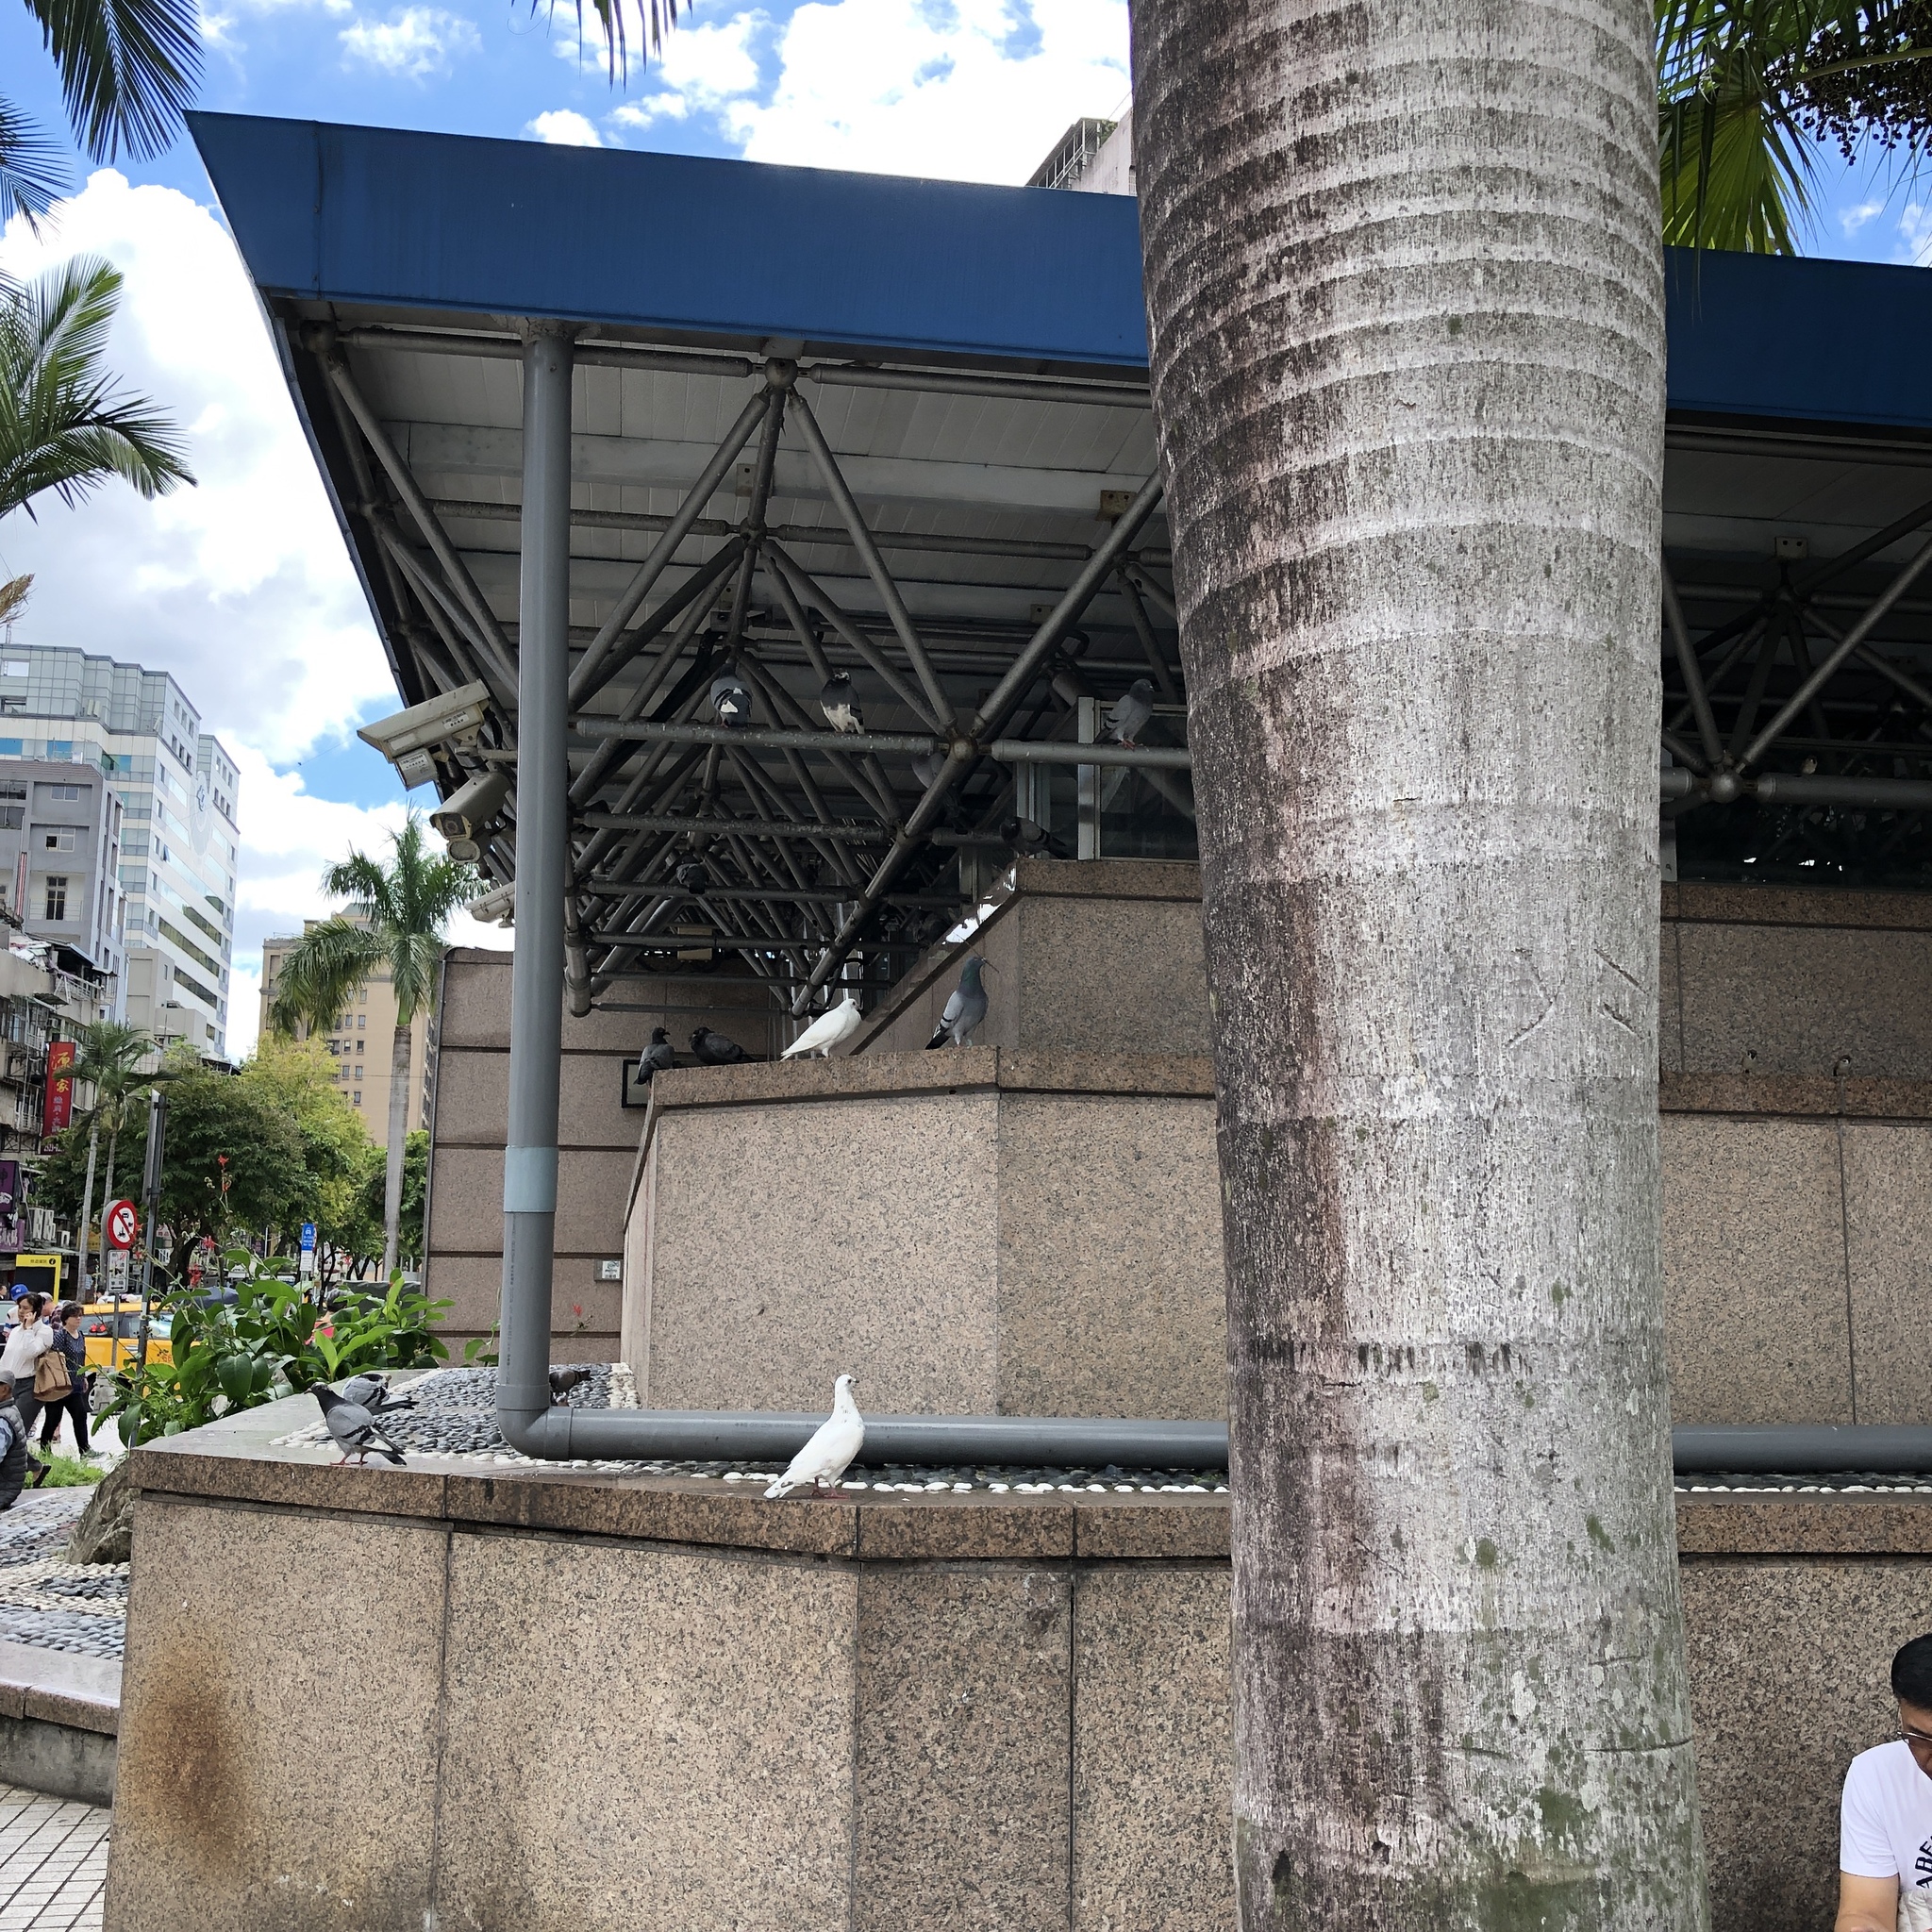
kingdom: Animalia
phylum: Chordata
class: Aves
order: Columbiformes
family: Columbidae
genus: Columba
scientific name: Columba livia
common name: Rock pigeon
